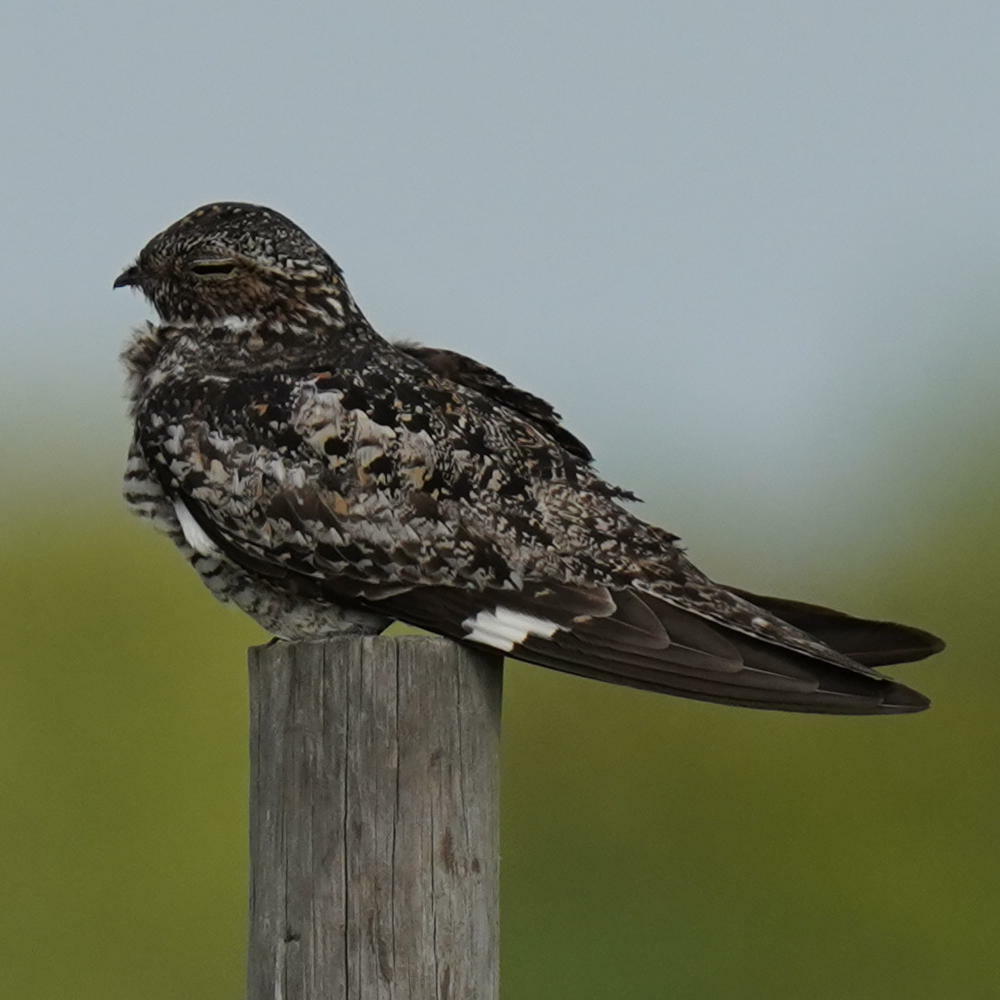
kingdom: Animalia
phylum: Chordata
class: Aves
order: Caprimulgiformes
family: Caprimulgidae
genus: Chordeiles
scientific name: Chordeiles minor
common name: Common nighthawk
